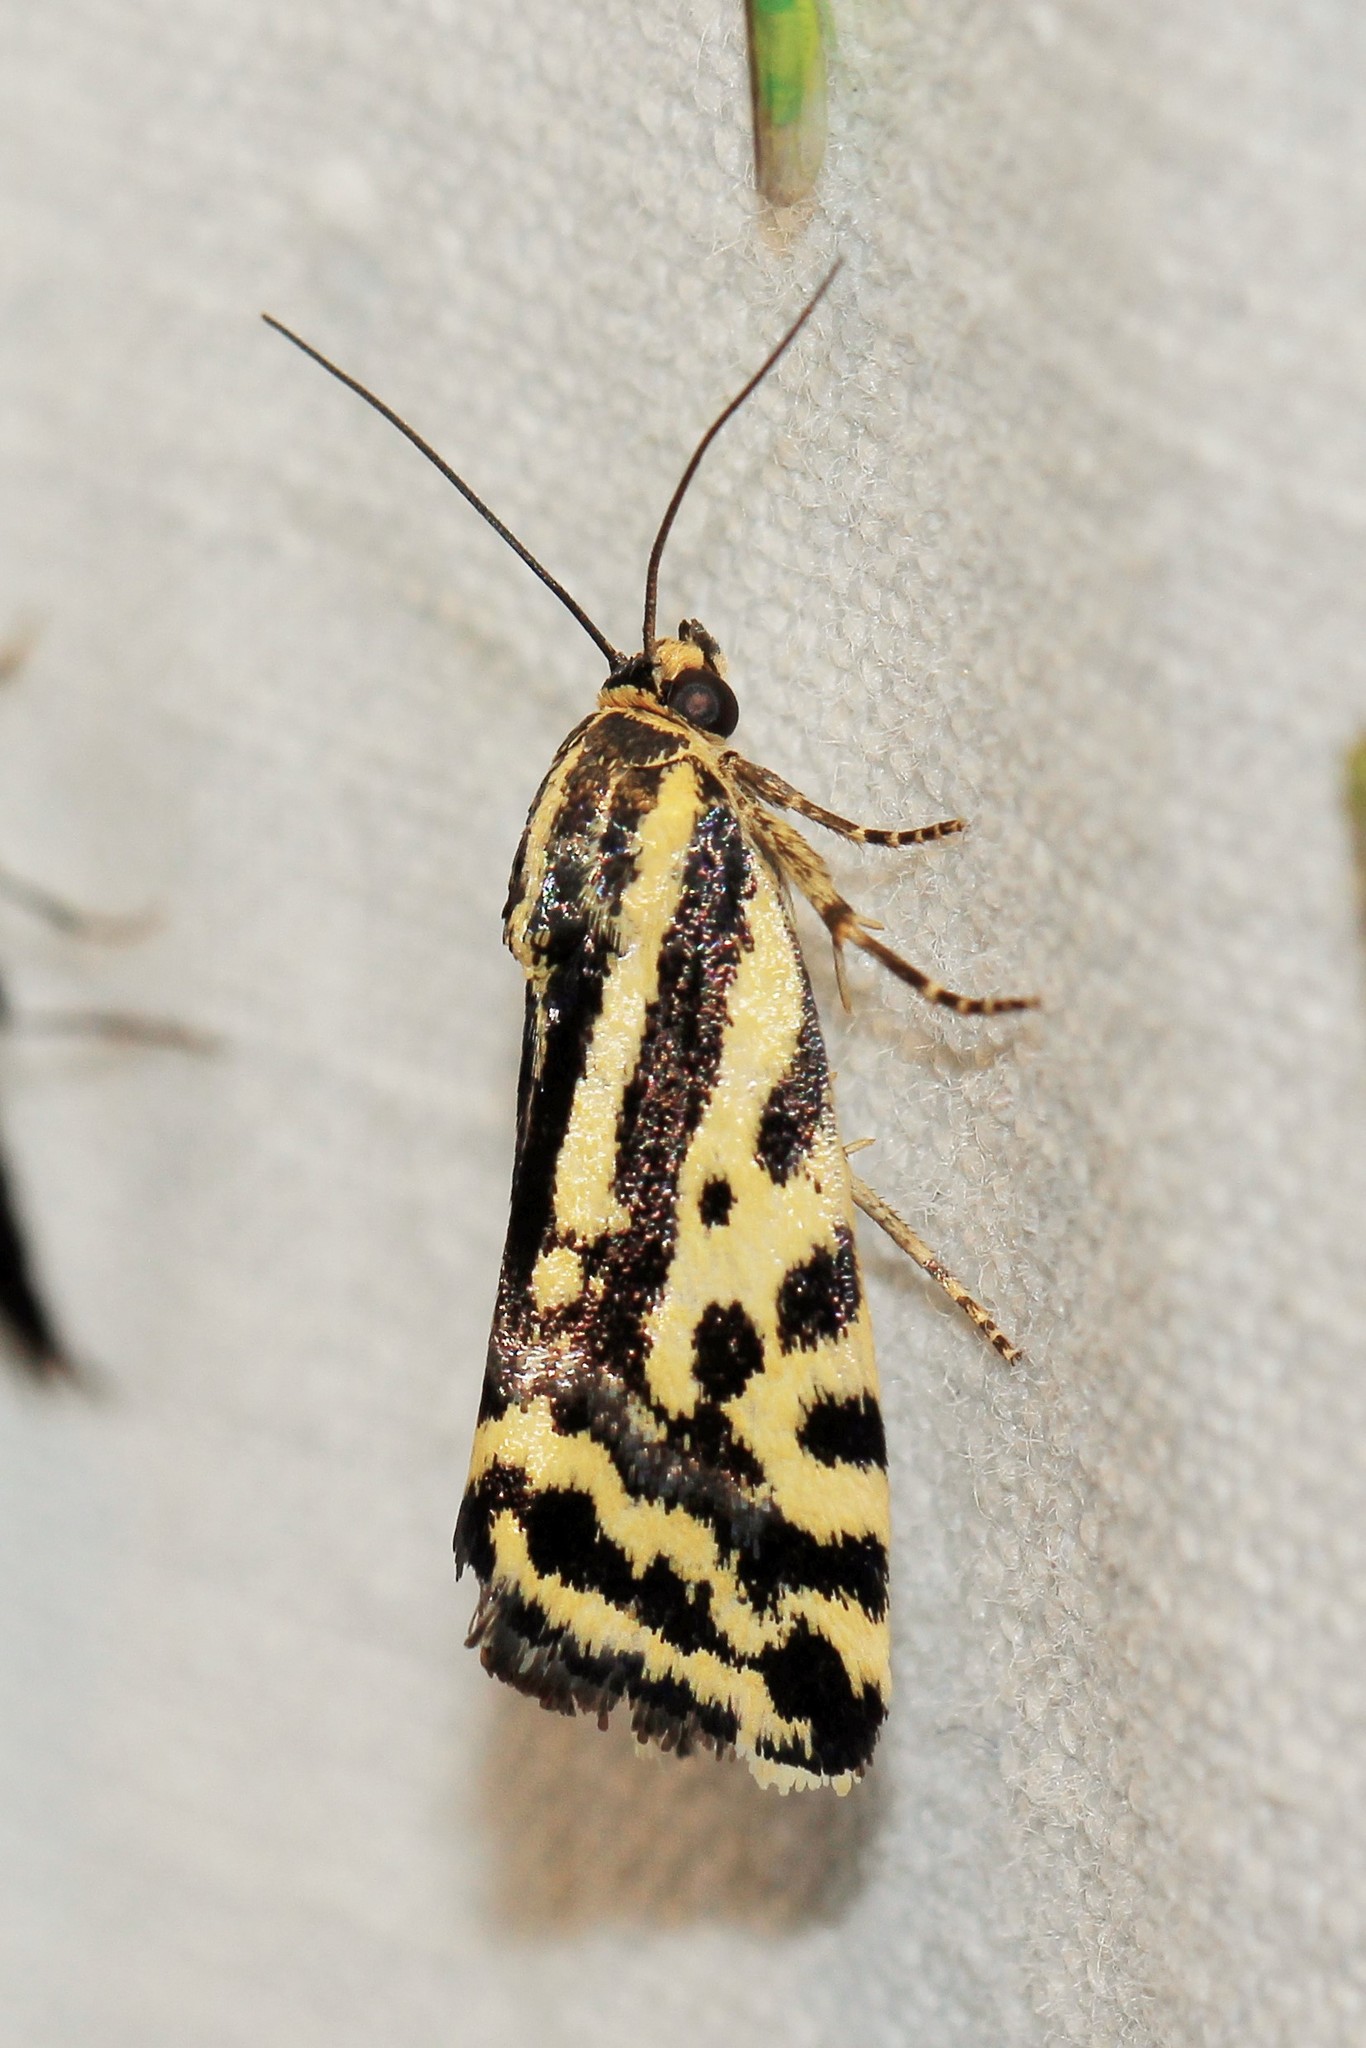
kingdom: Animalia
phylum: Arthropoda
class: Insecta
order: Lepidoptera
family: Noctuidae
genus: Acontia
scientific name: Acontia trabealis
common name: Spotted sulphur
